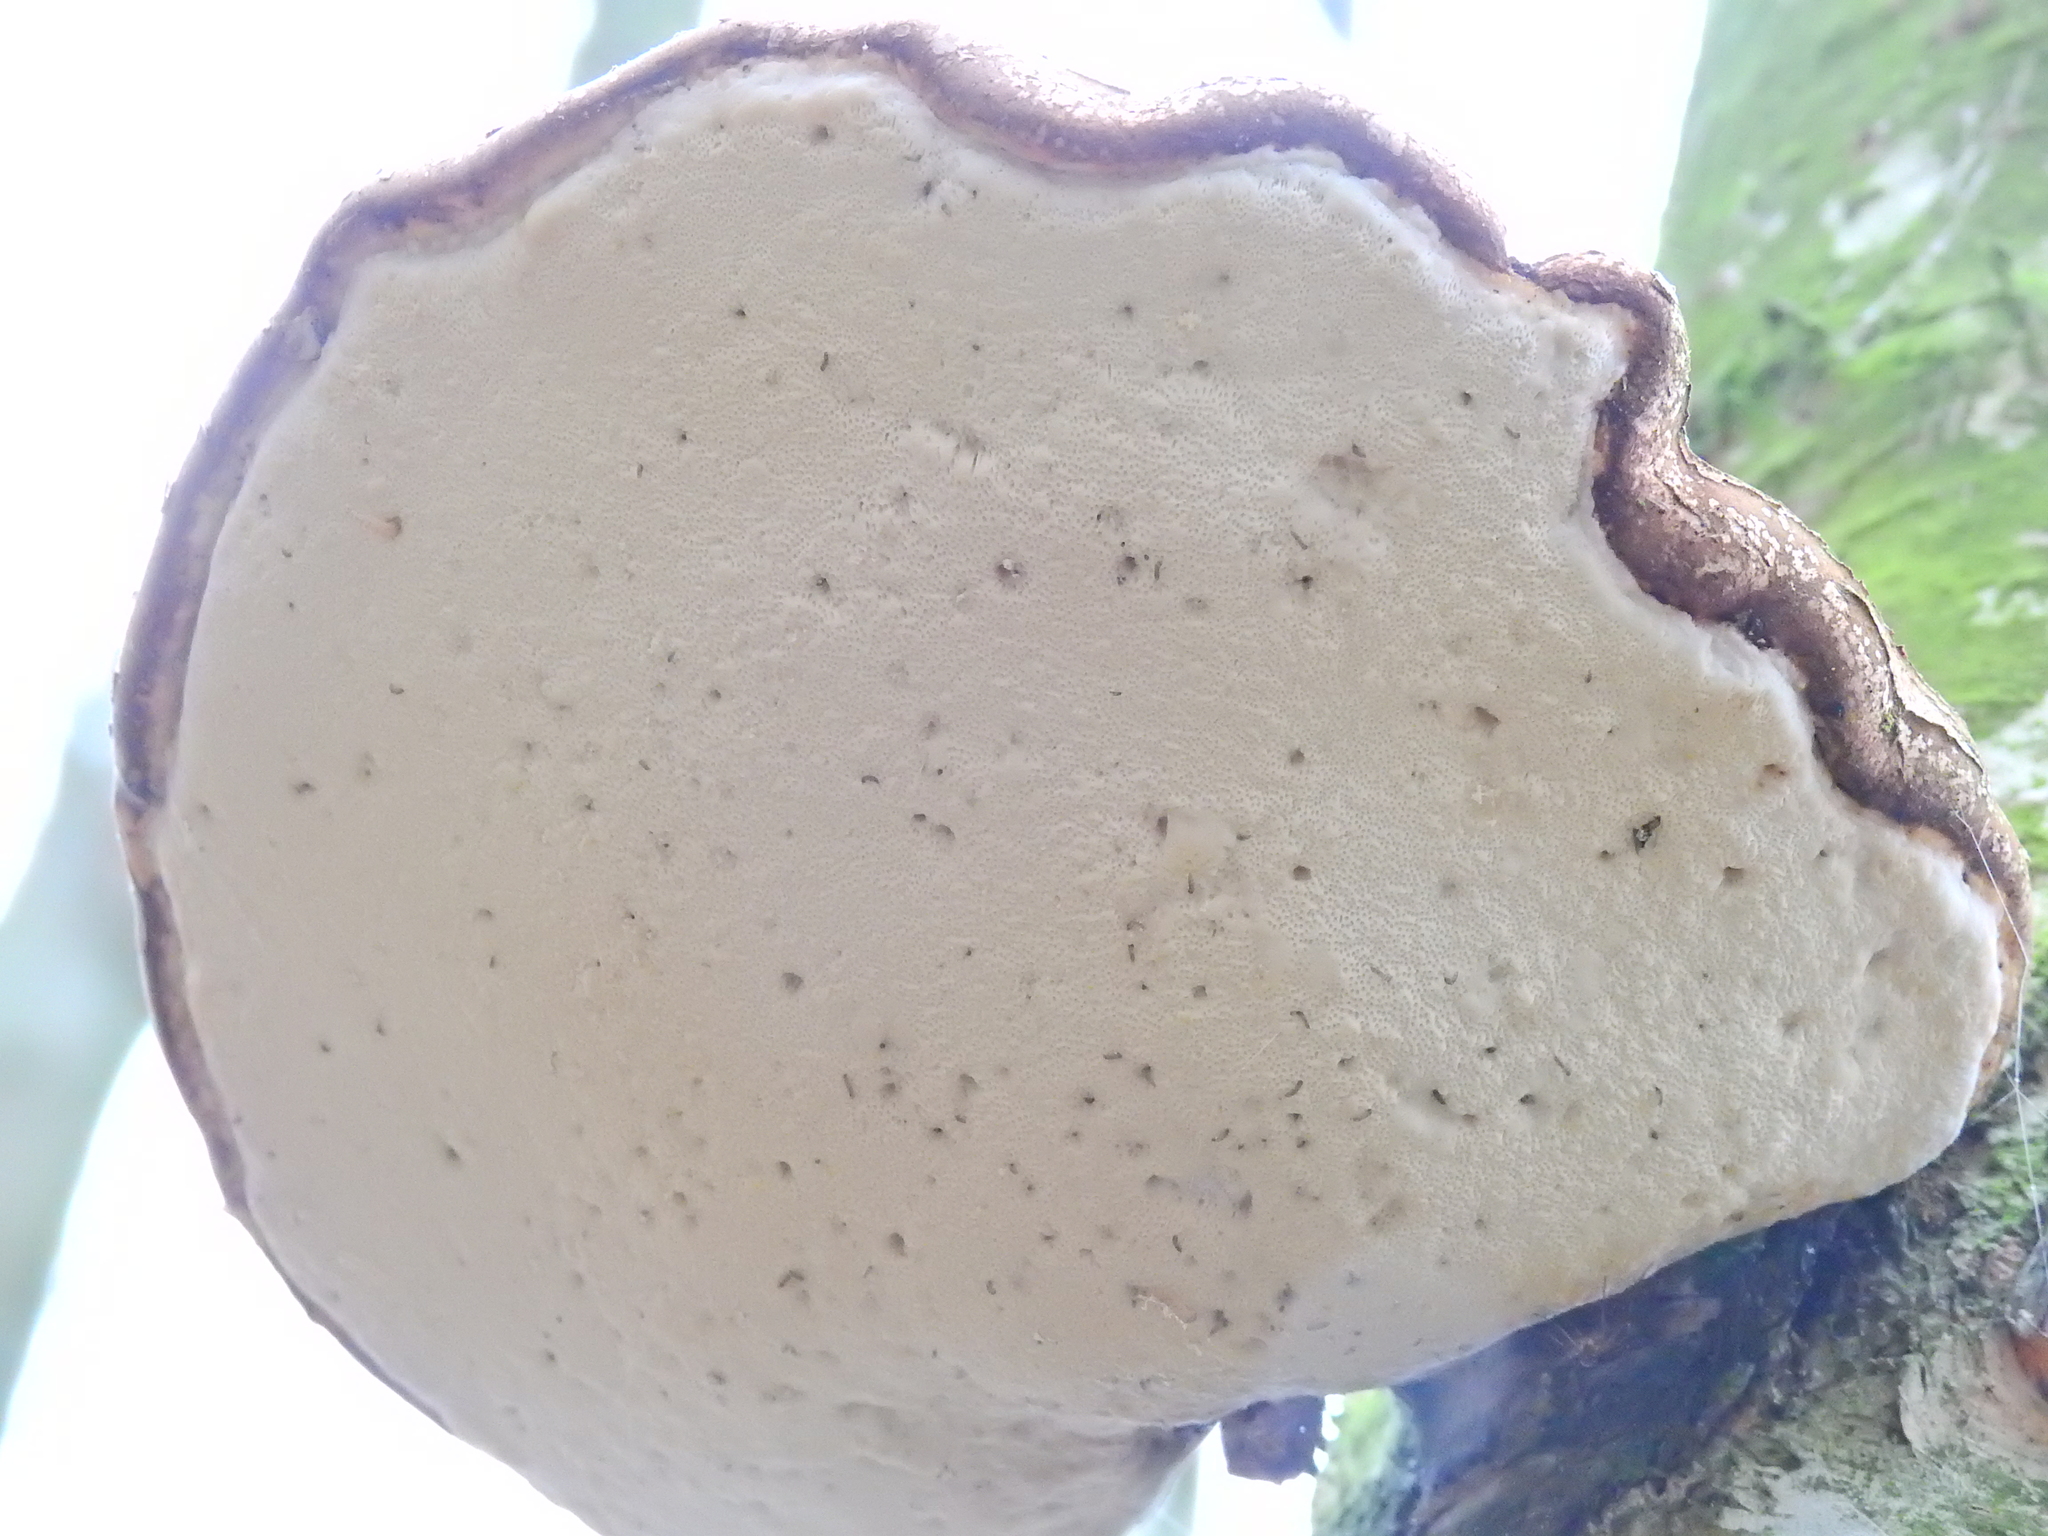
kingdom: Fungi
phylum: Basidiomycota
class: Agaricomycetes
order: Polyporales
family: Fomitopsidaceae
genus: Fomitopsis
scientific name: Fomitopsis betulina
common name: Birch polypore
